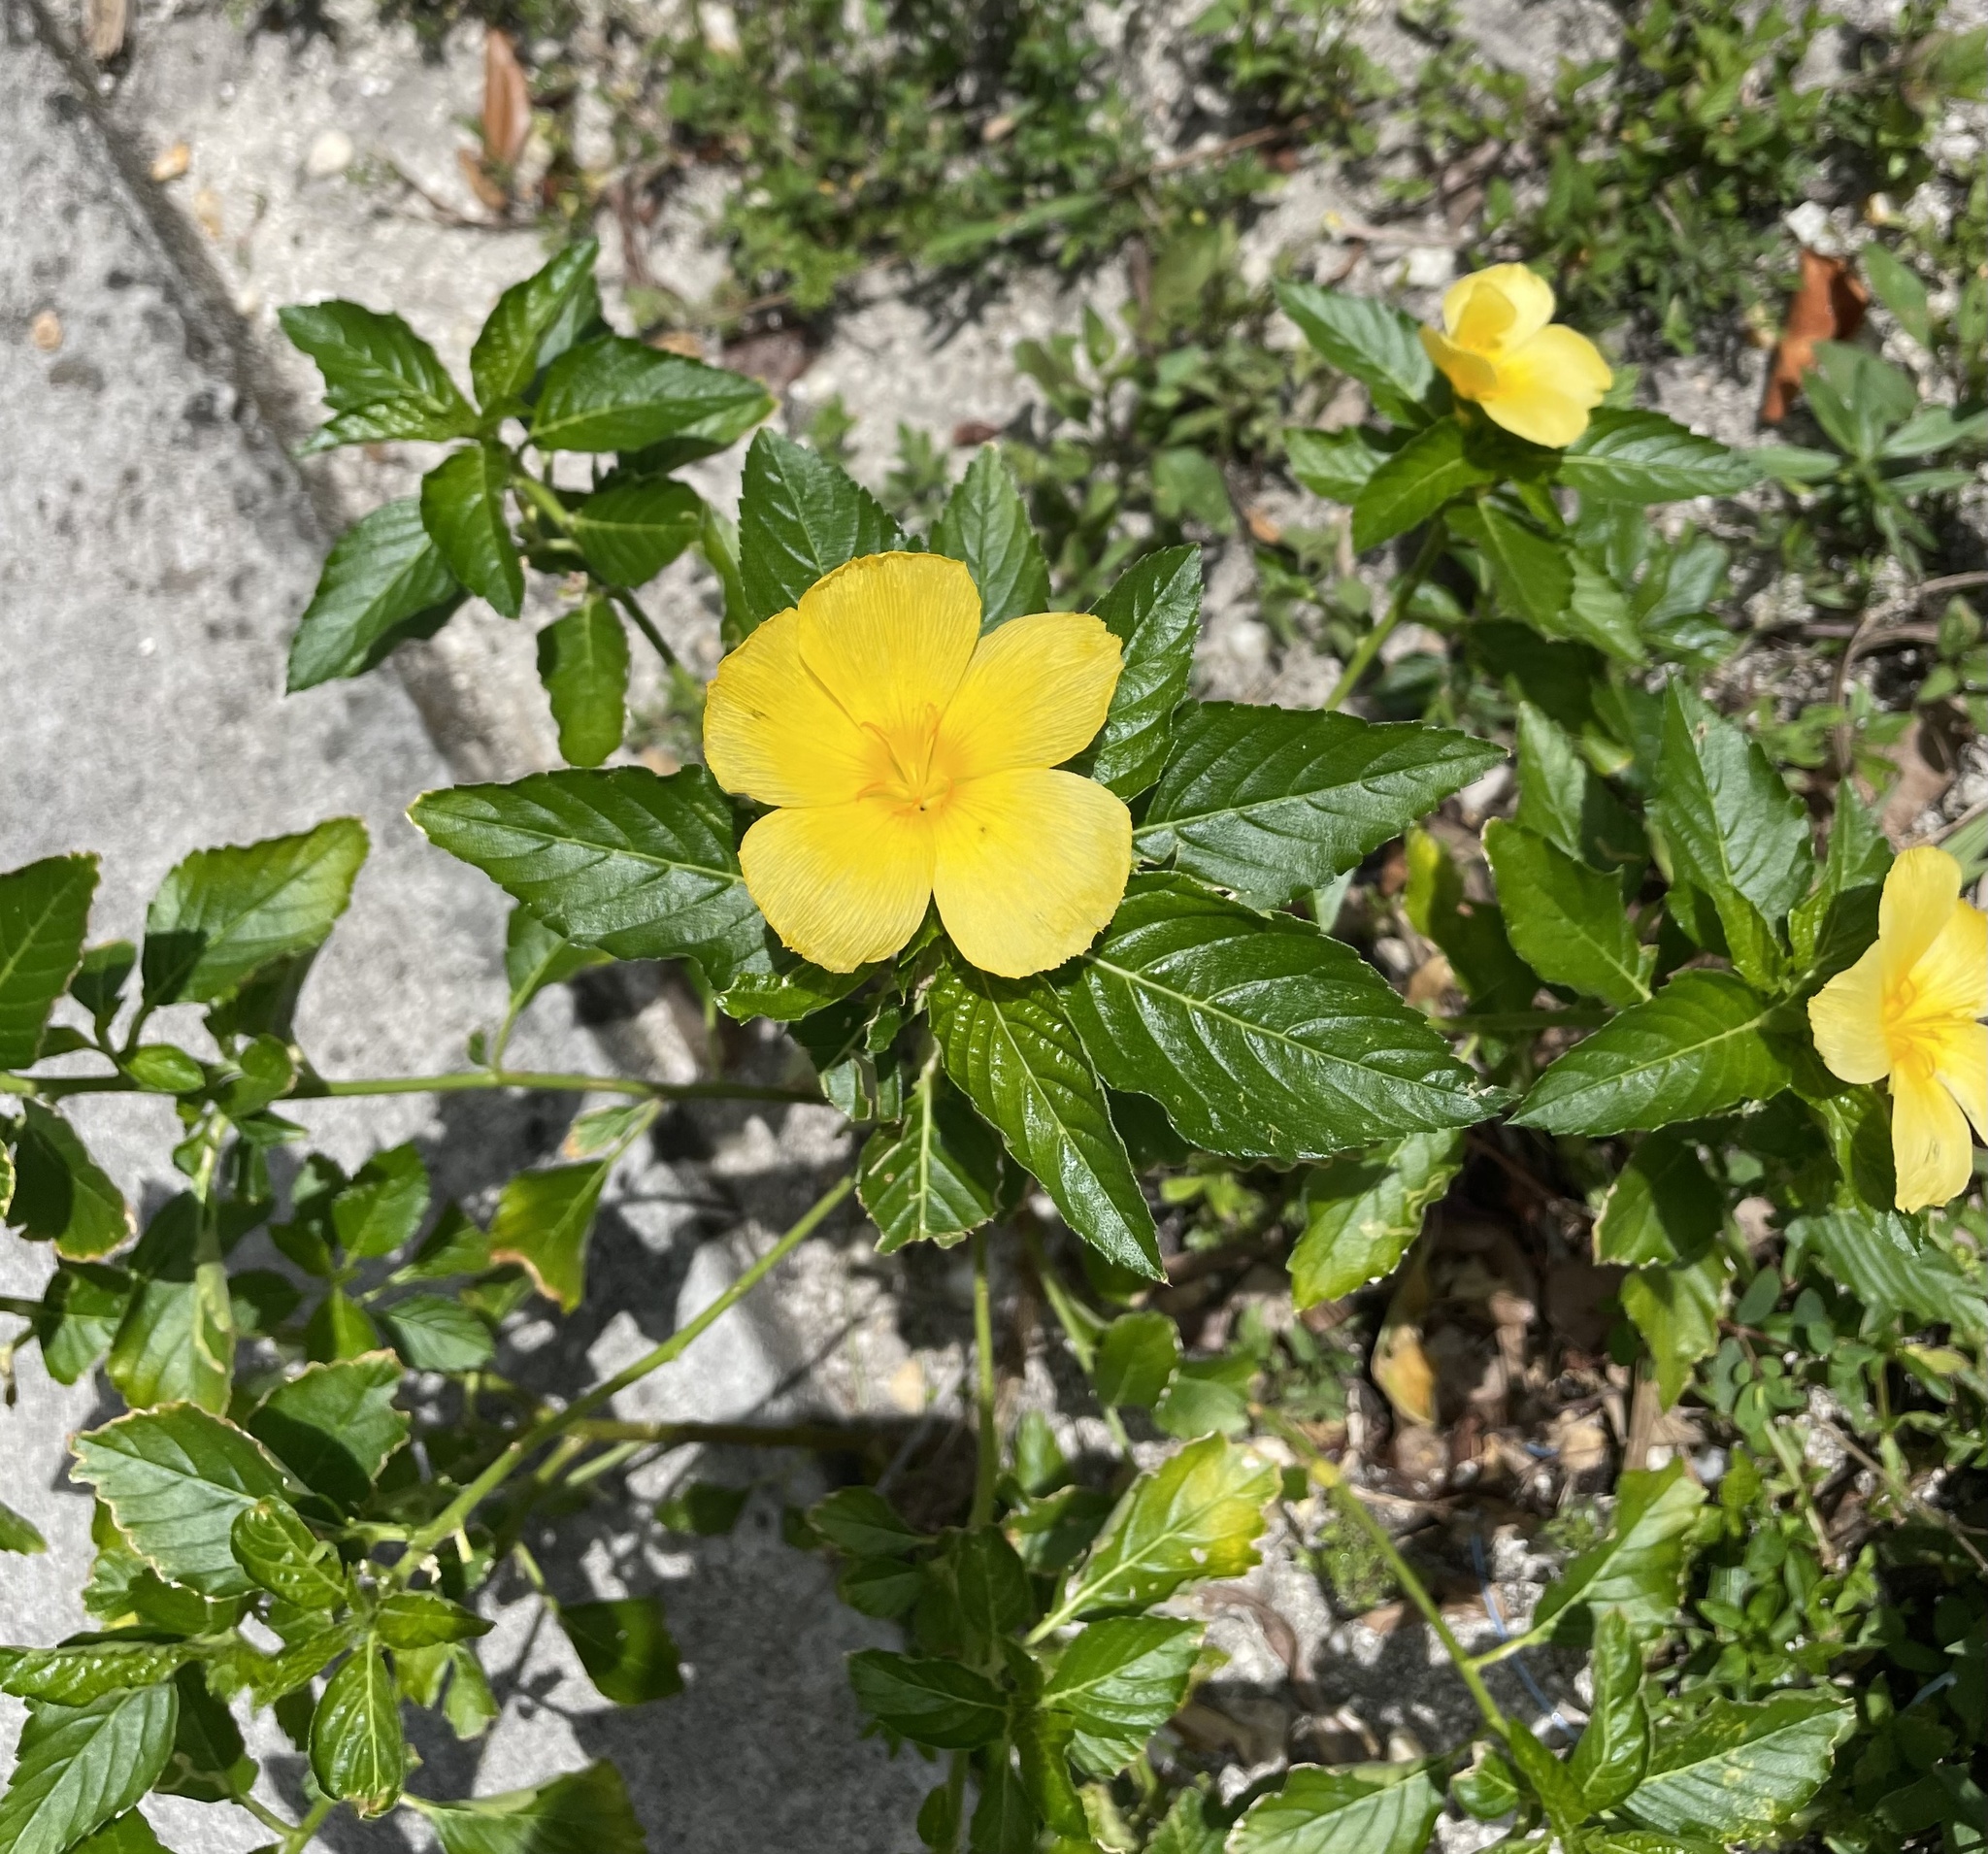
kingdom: Plantae
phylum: Tracheophyta
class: Magnoliopsida
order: Malpighiales
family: Turneraceae
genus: Turnera
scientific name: Turnera ulmifolia
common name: Ramgoat dashalong
